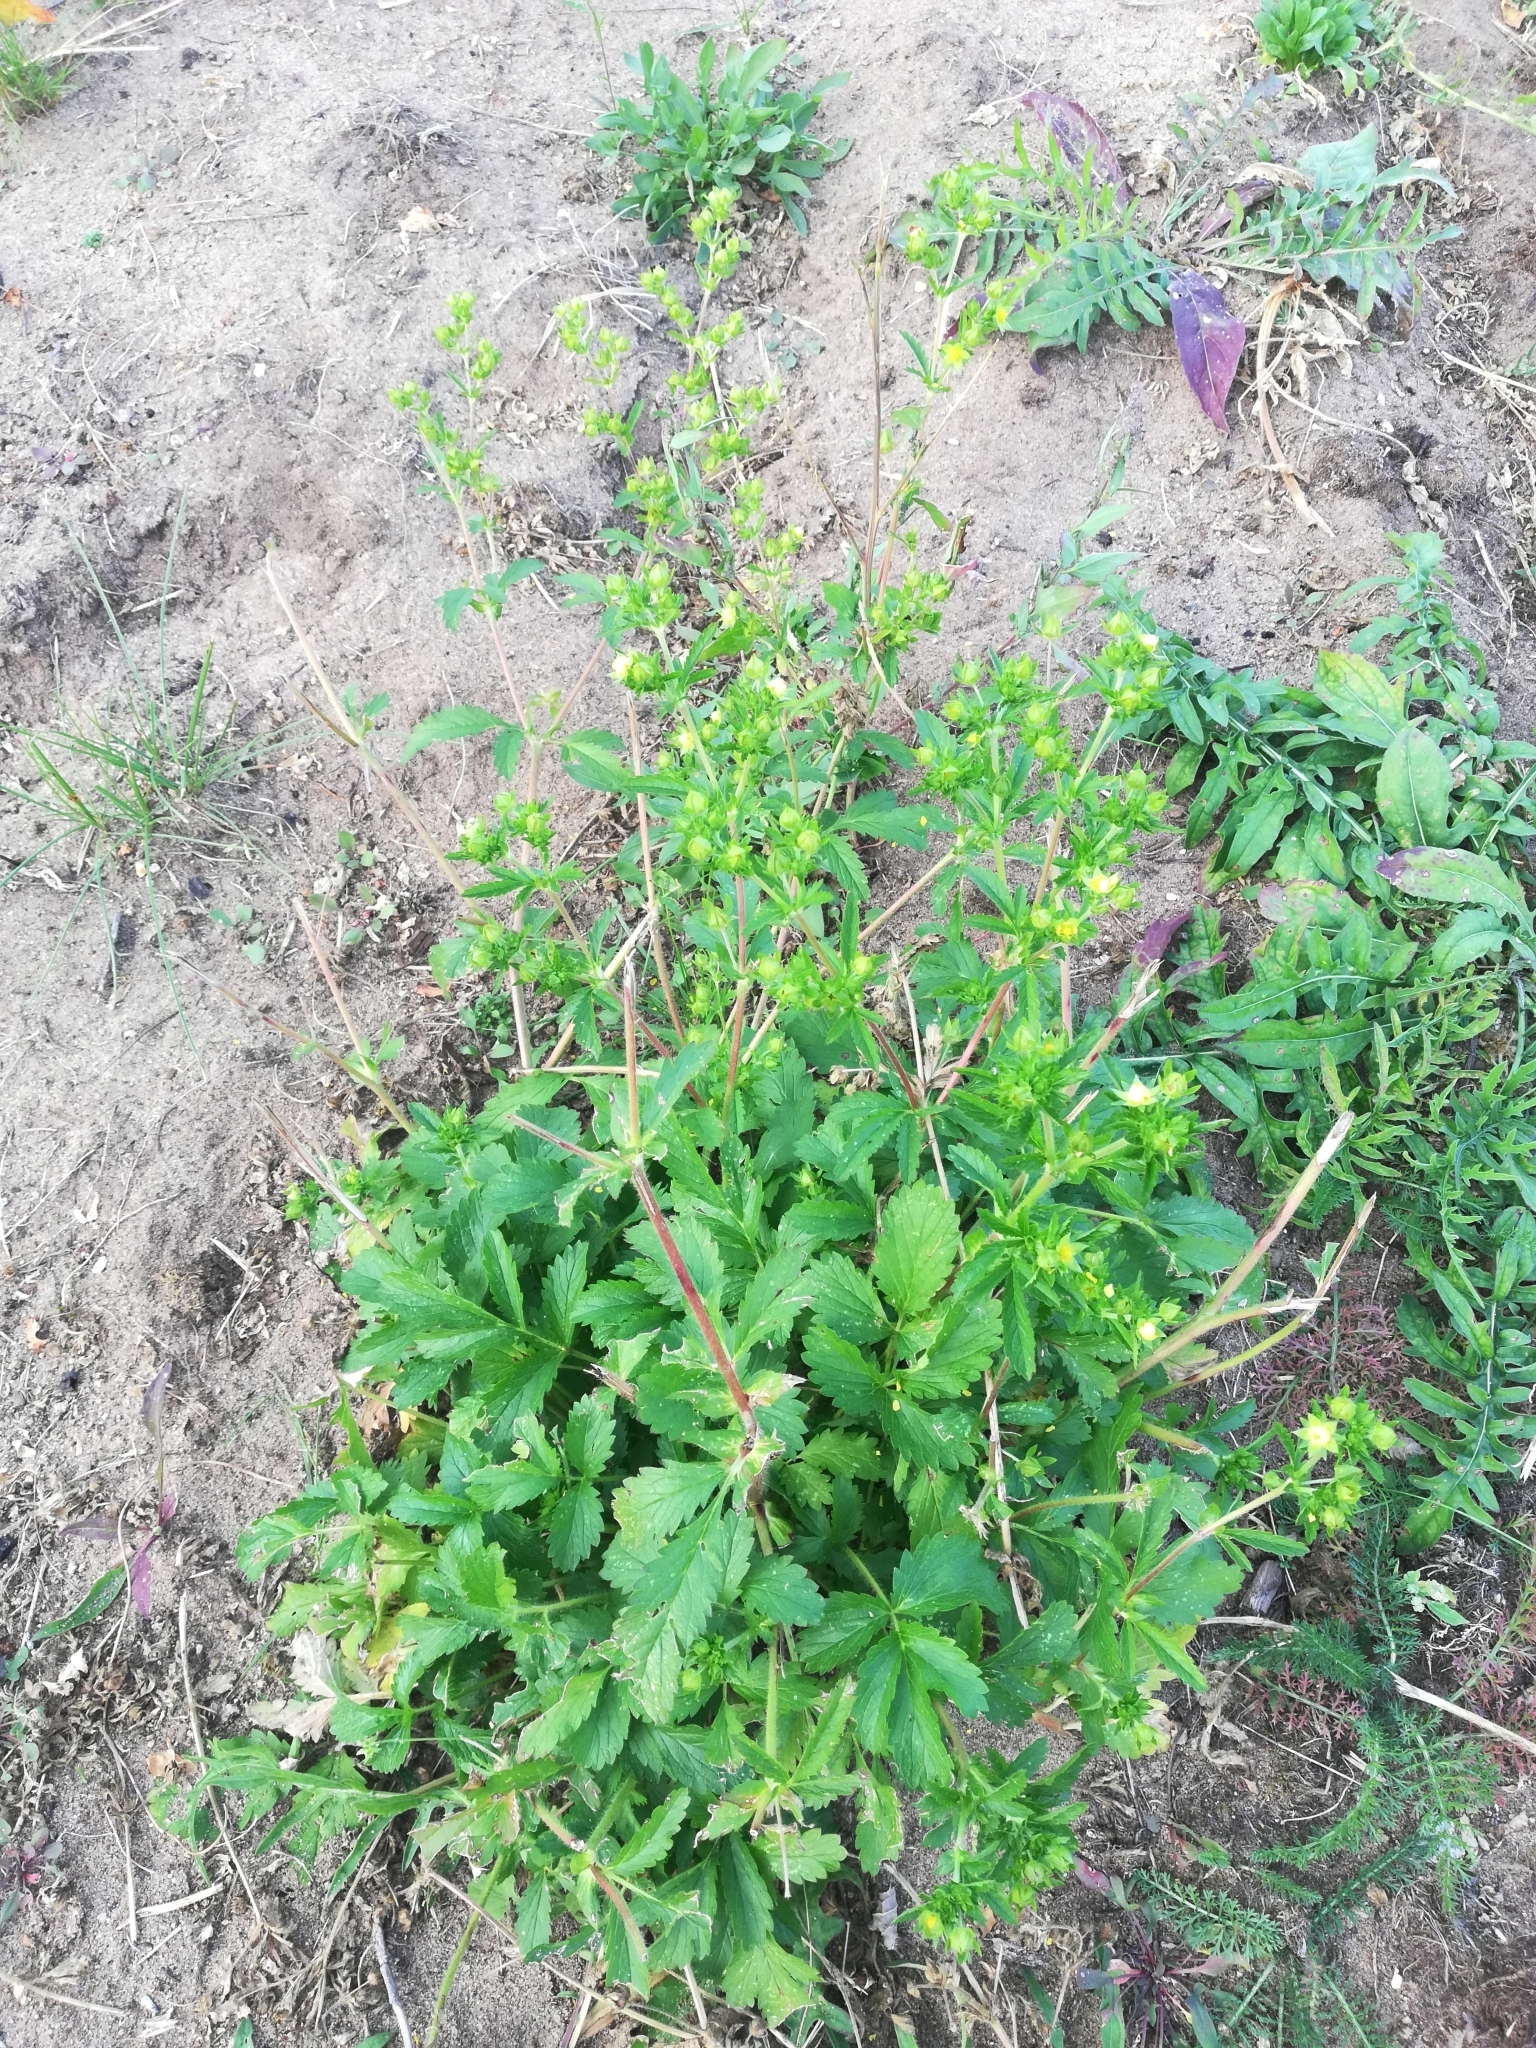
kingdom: Plantae
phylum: Tracheophyta
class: Magnoliopsida
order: Rosales
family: Rosaceae
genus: Potentilla
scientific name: Potentilla norvegica
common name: Ternate-leaved cinquefoil
